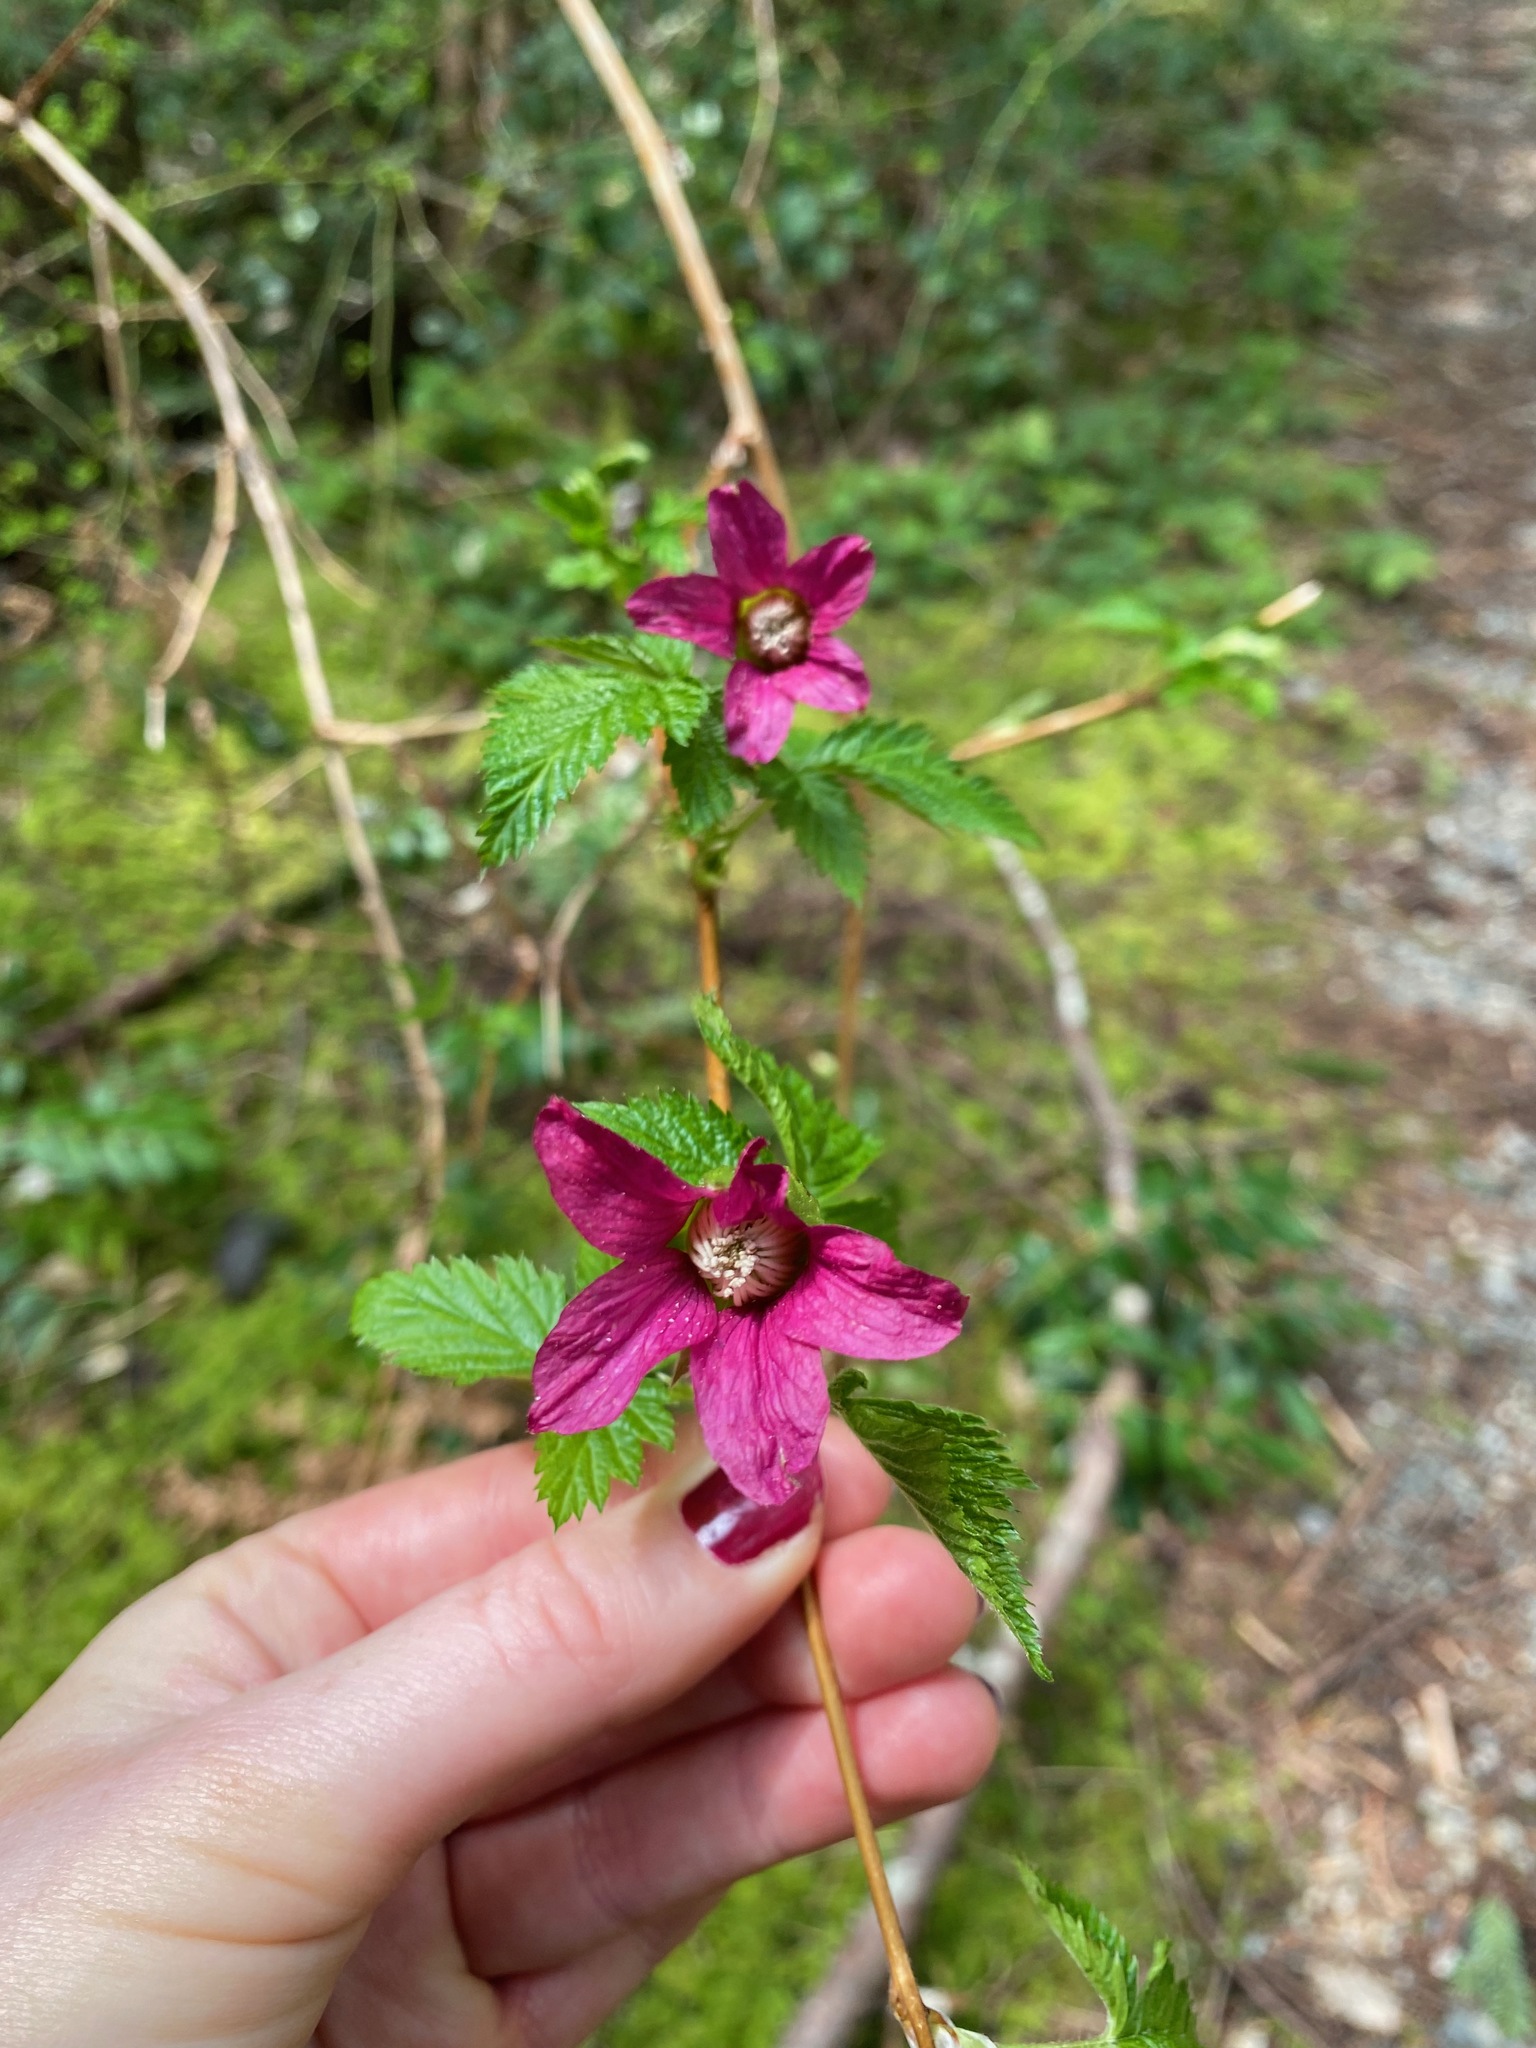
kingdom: Plantae
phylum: Tracheophyta
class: Magnoliopsida
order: Rosales
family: Rosaceae
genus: Rubus
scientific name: Rubus spectabilis
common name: Salmonberry
